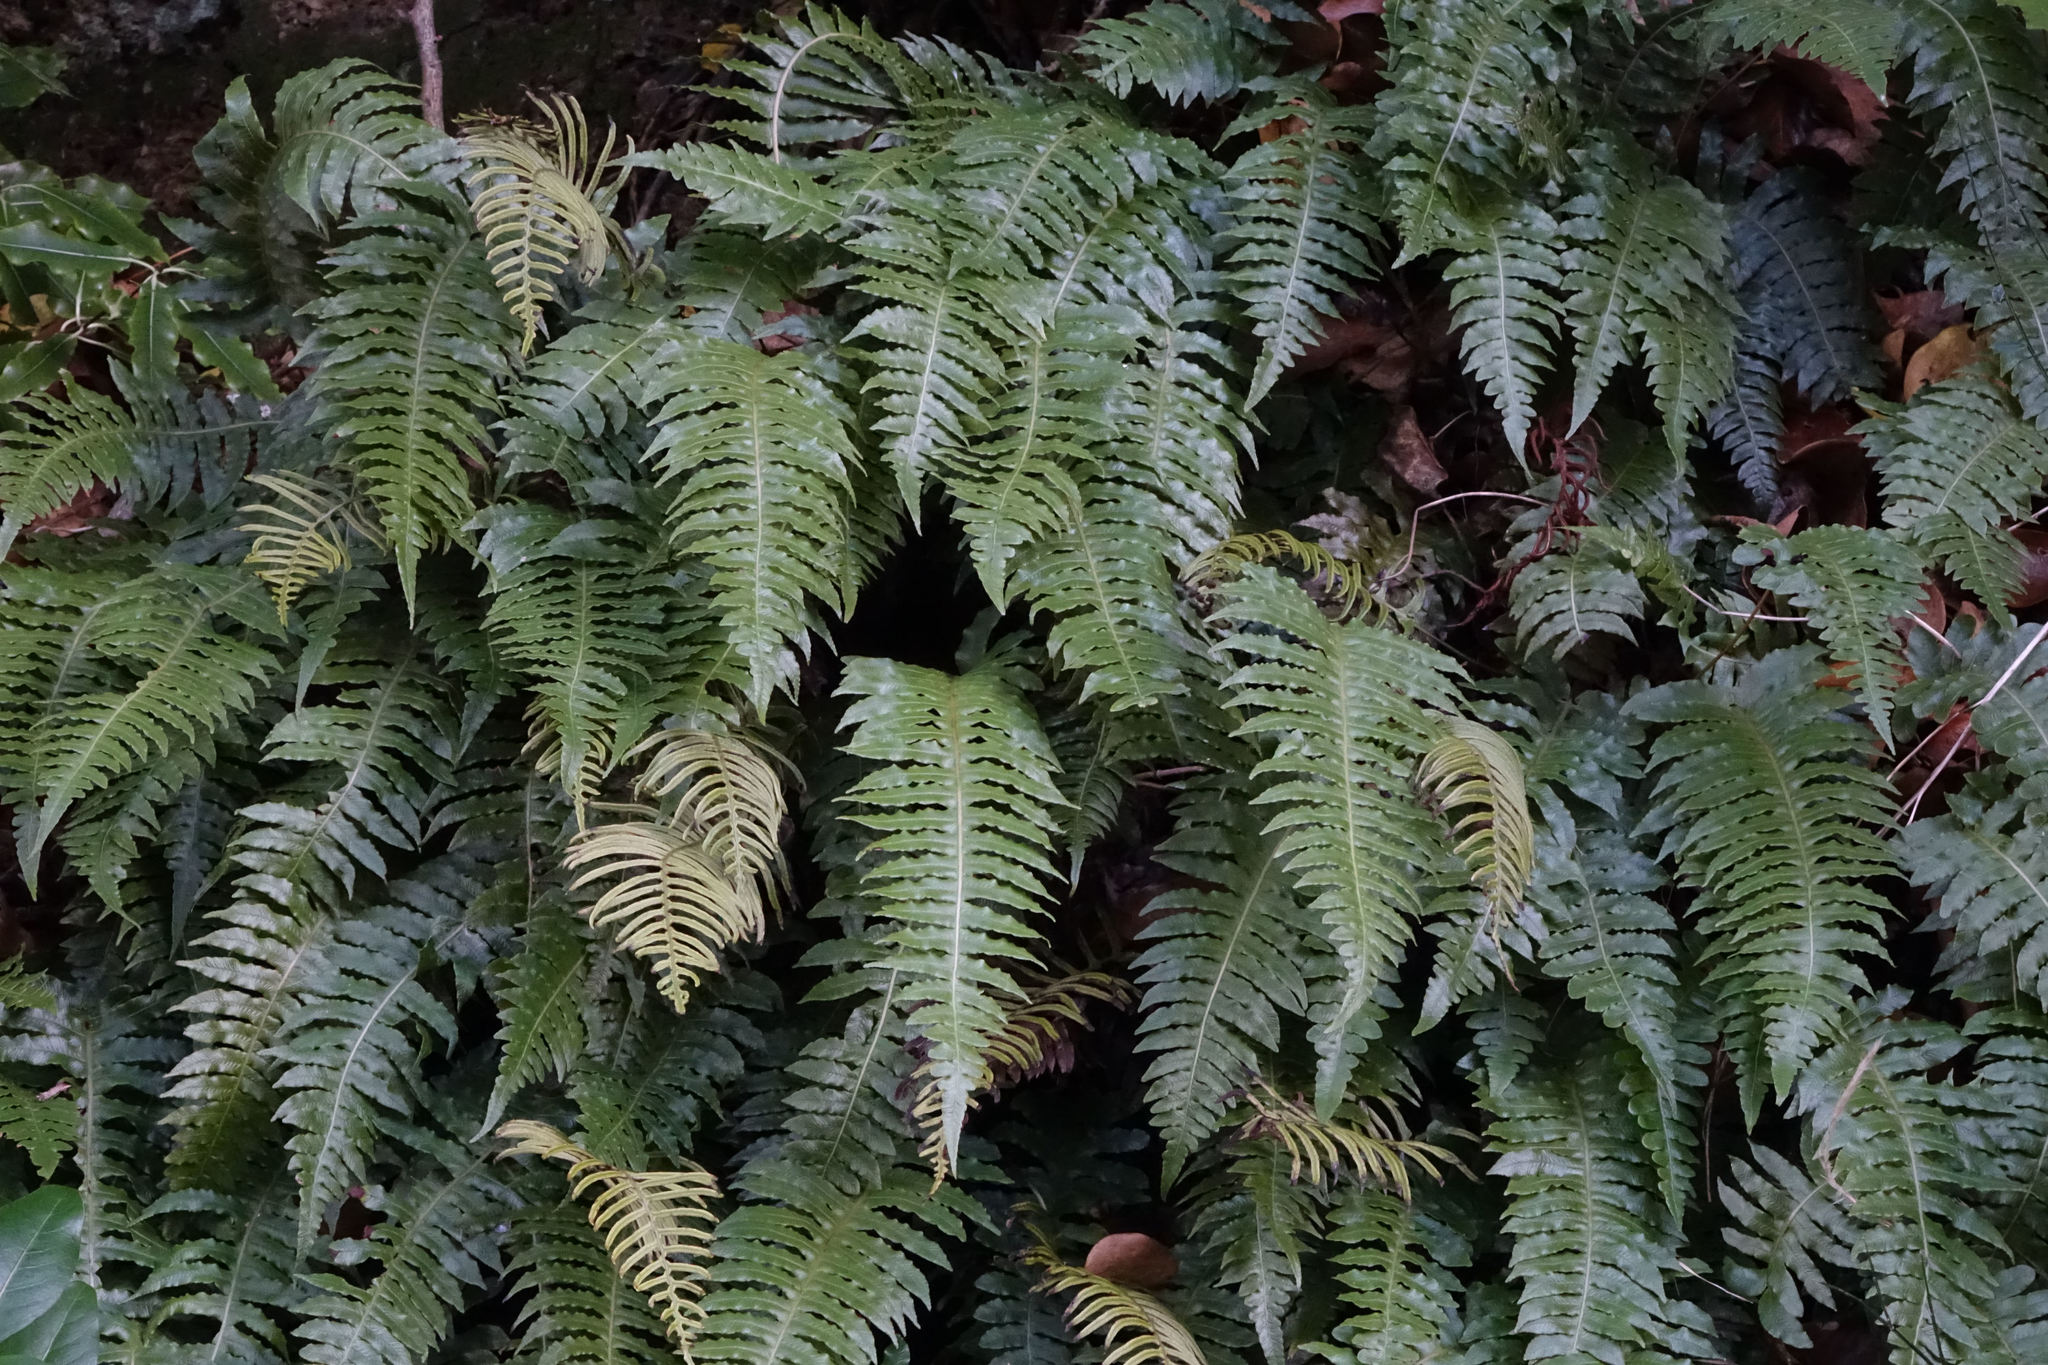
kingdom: Plantae
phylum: Tracheophyta
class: Polypodiopsida
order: Polypodiales
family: Blechnaceae
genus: Cranfillia
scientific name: Cranfillia vulcanica
